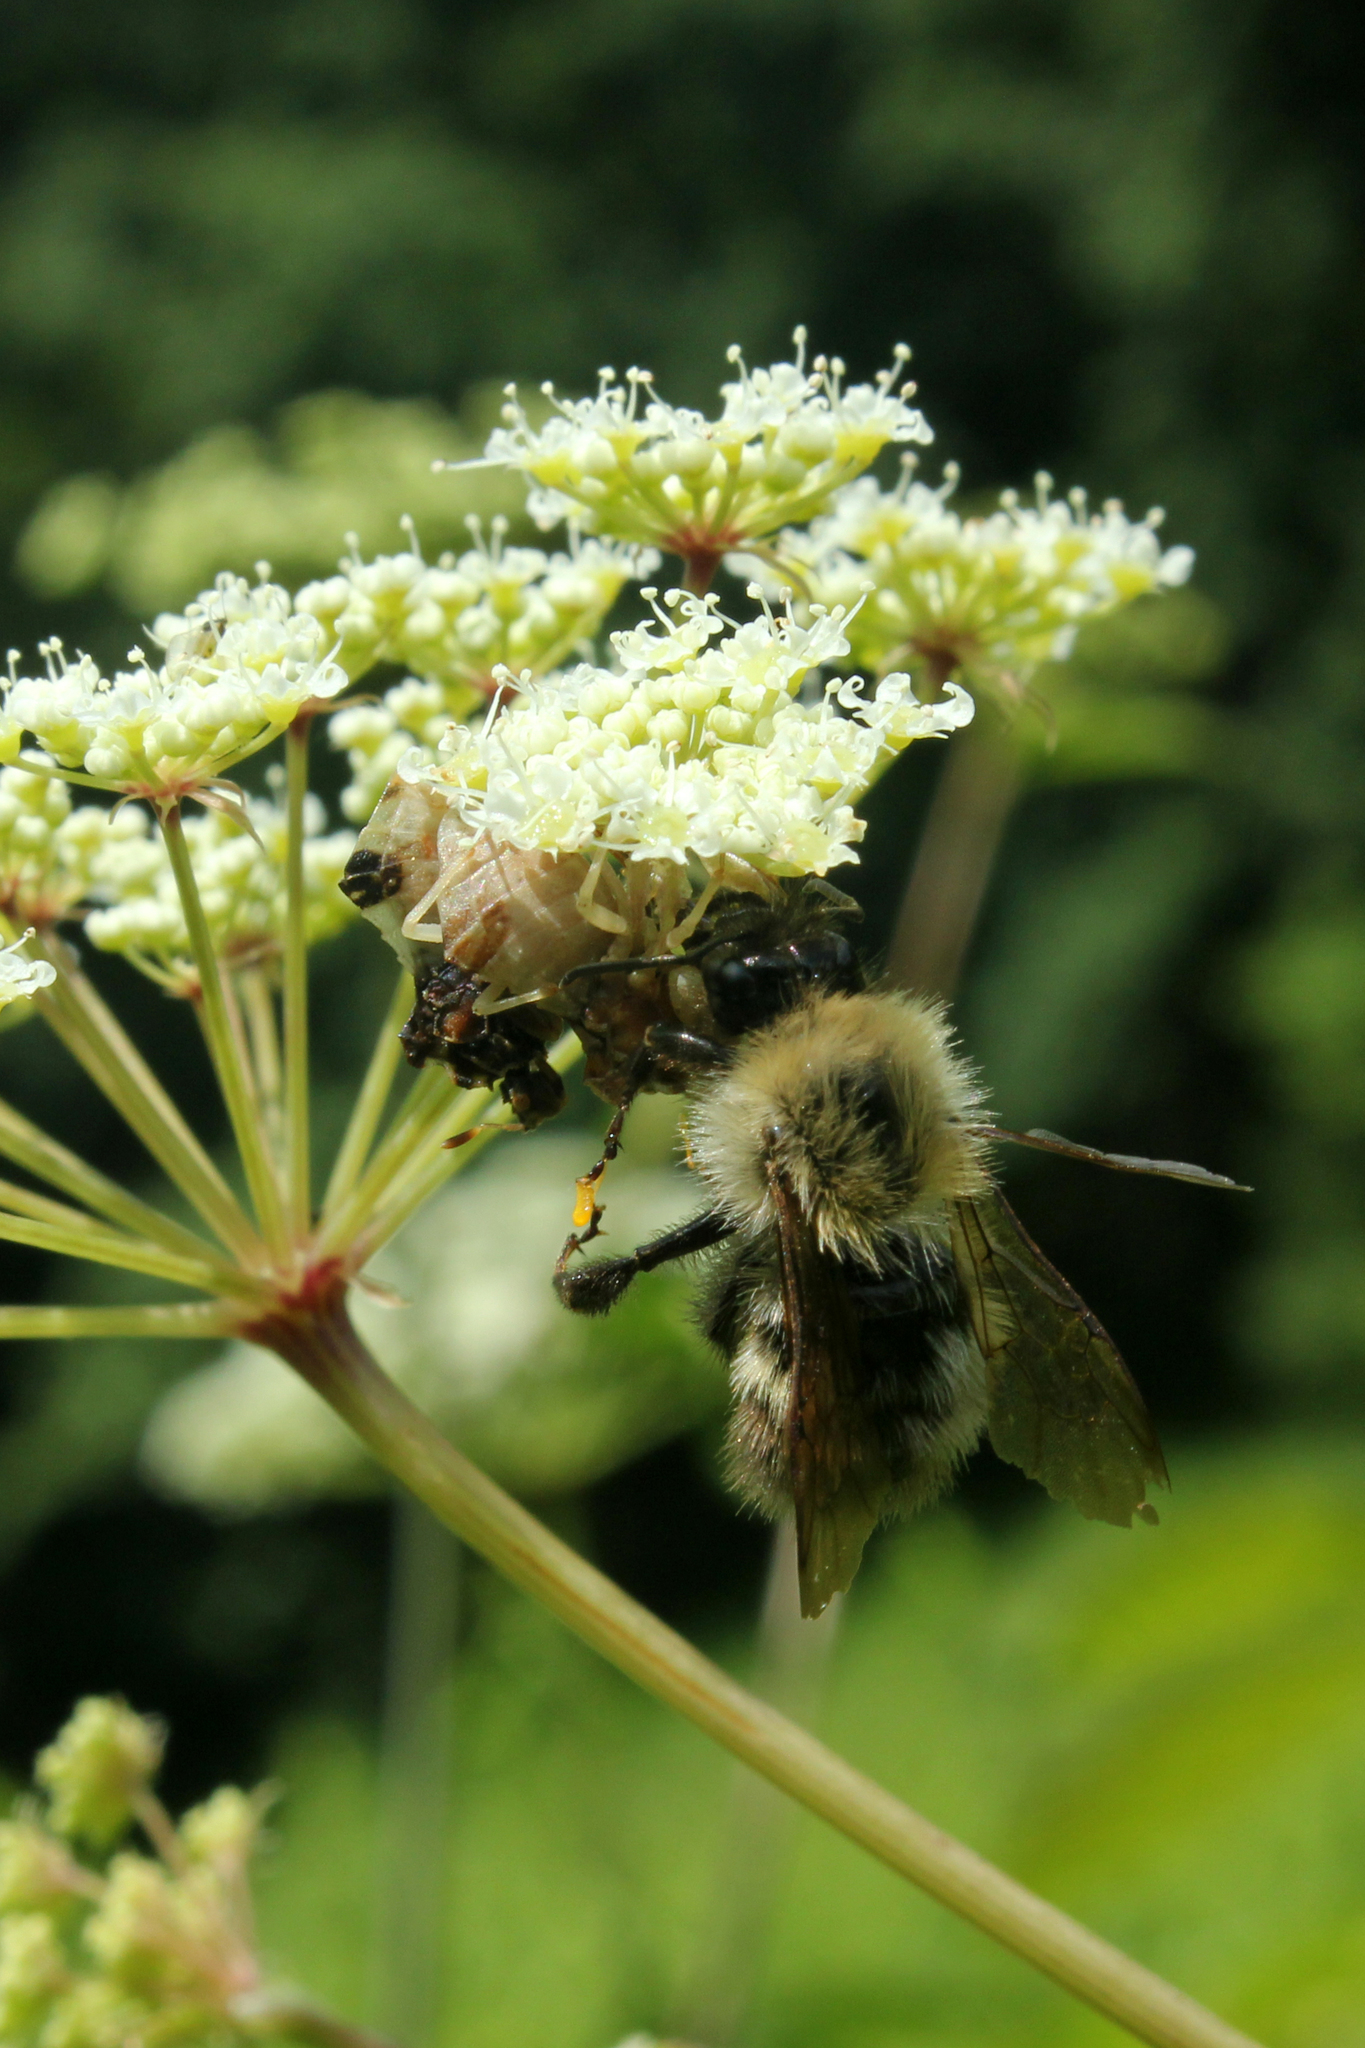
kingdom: Animalia
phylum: Arthropoda
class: Insecta
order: Hymenoptera
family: Apidae
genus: Bombus
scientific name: Bombus perplexus
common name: Confusing bumble bee
